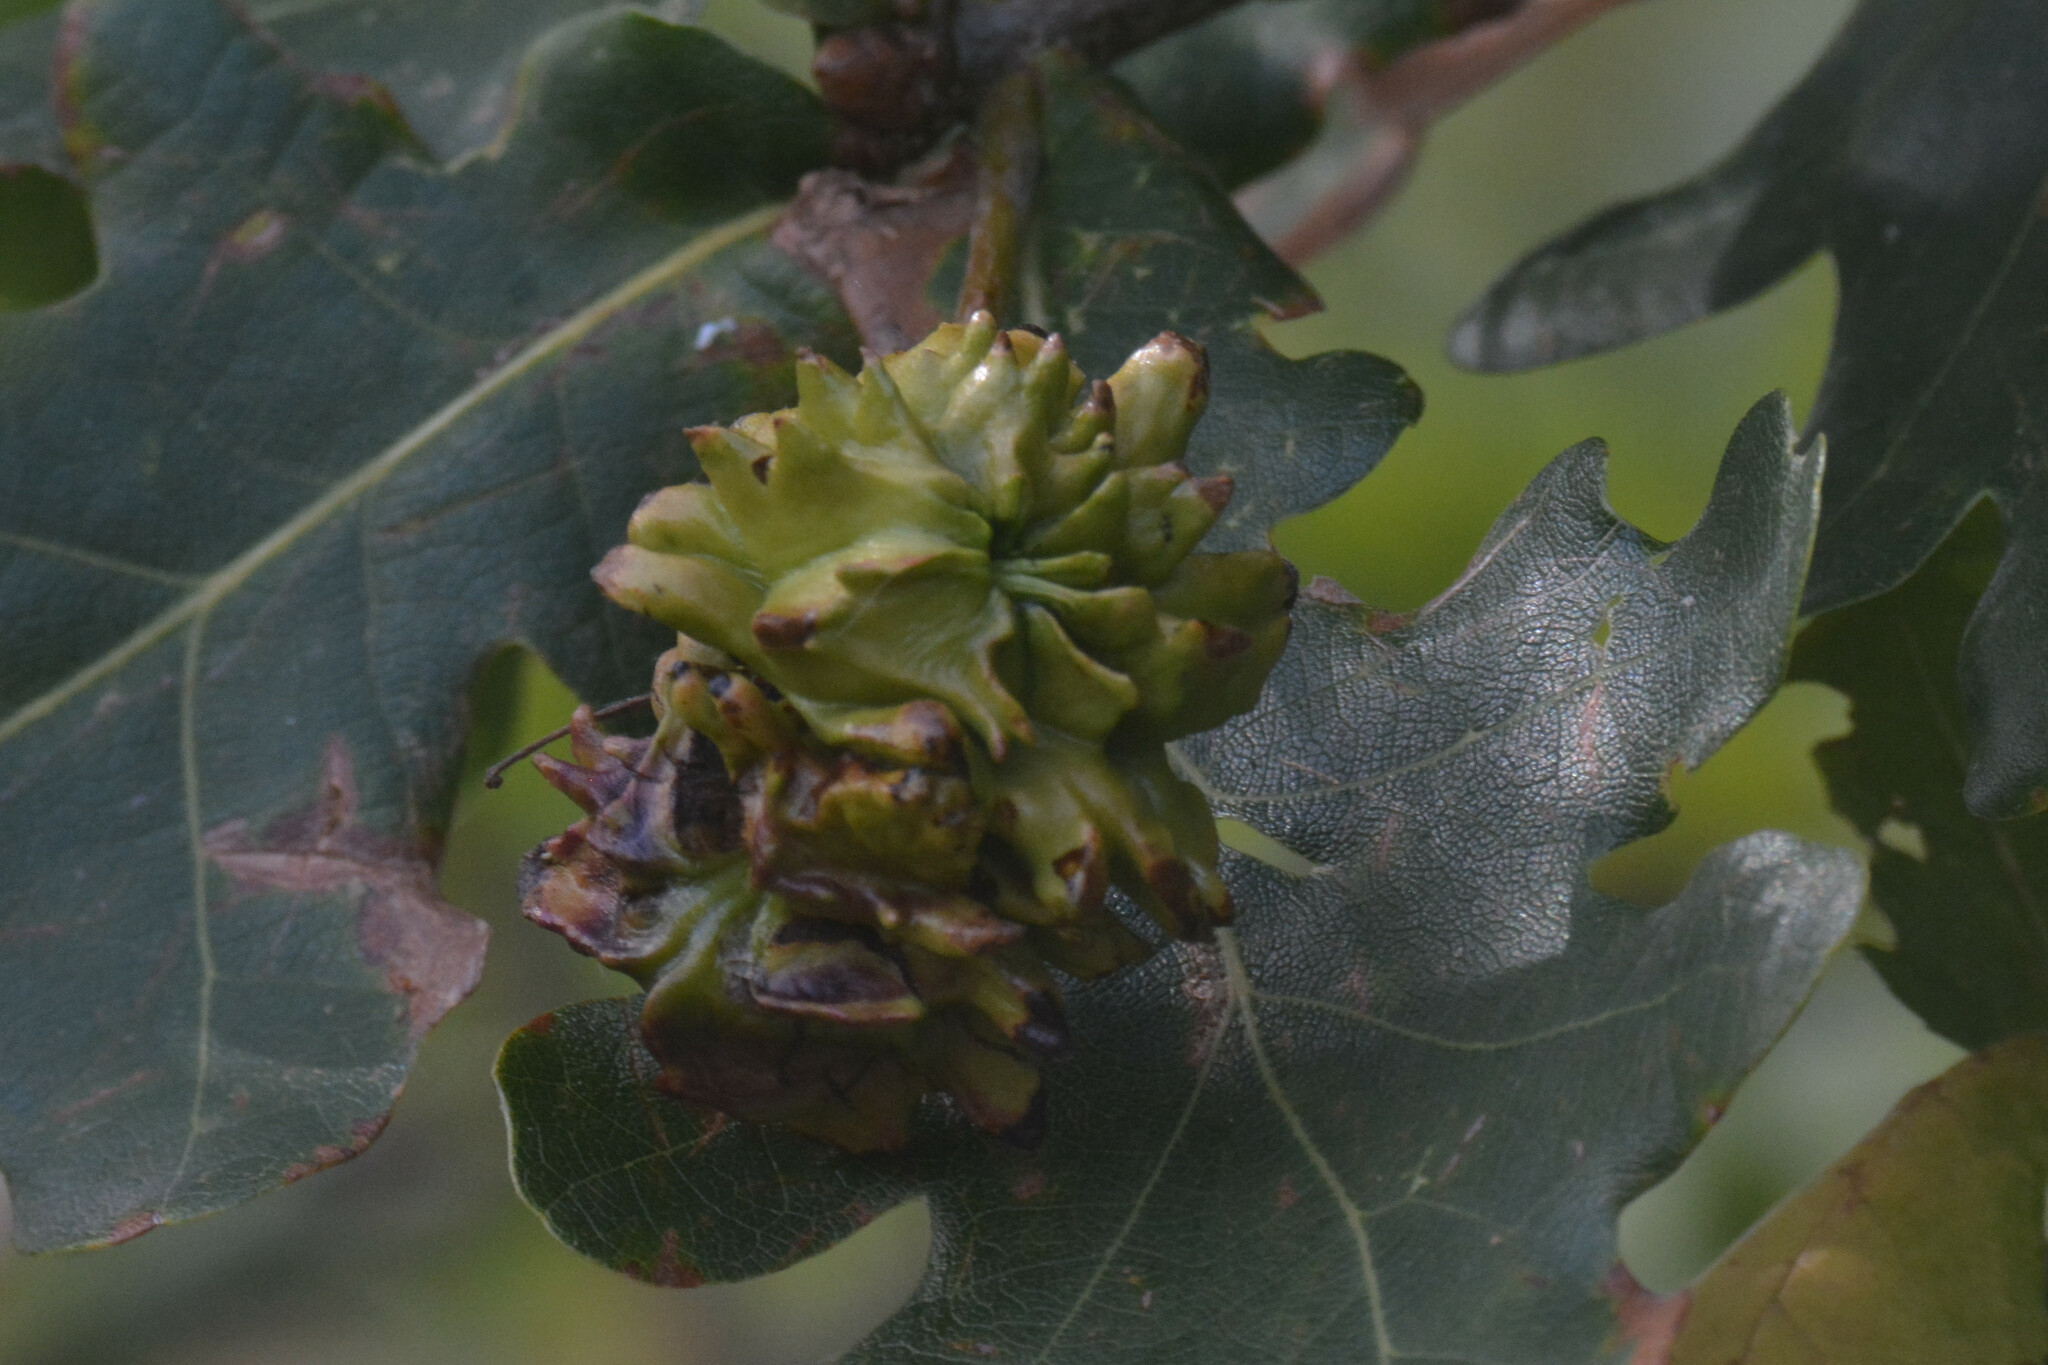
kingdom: Animalia
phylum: Arthropoda
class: Insecta
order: Hymenoptera
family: Cynipidae
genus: Andricus
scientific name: Andricus quercuscalicis
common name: Knopper gall
